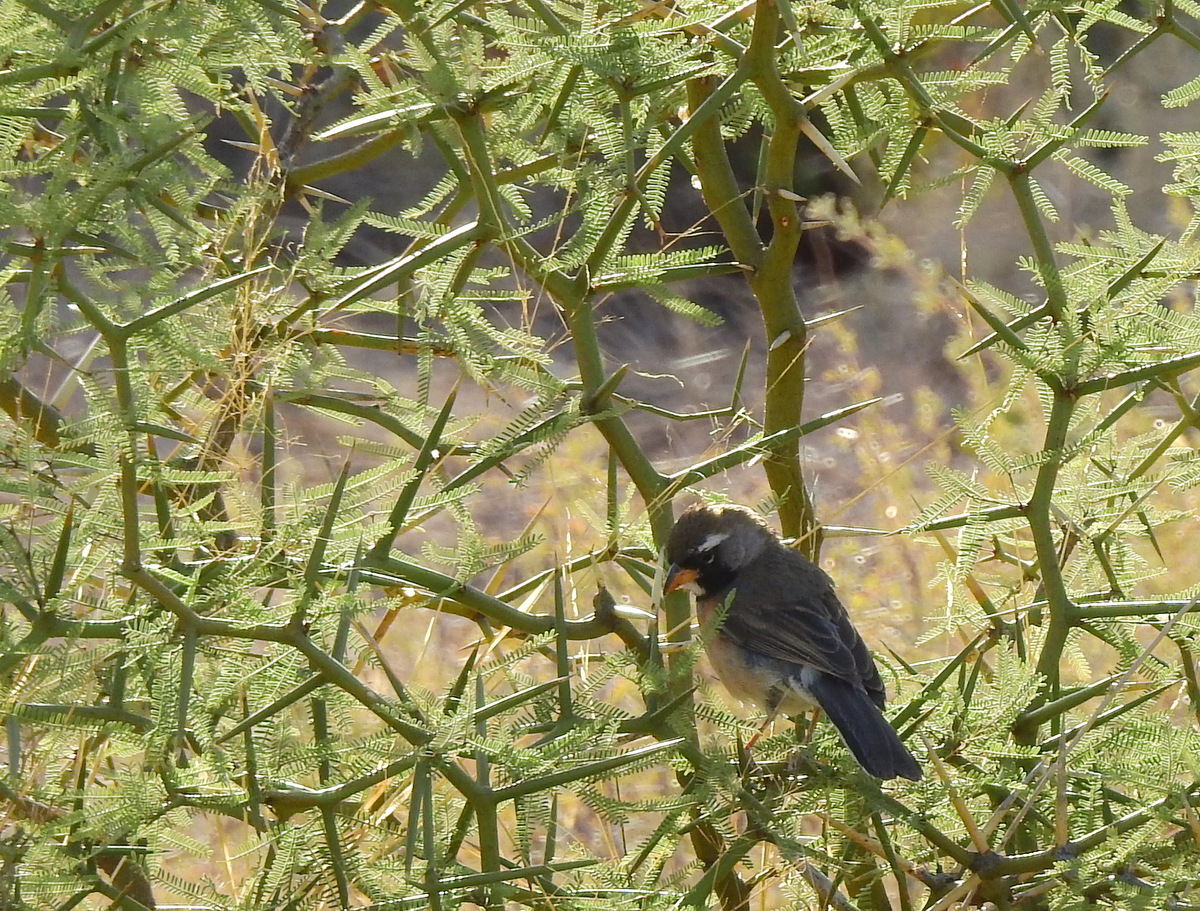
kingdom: Animalia
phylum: Chordata
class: Aves
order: Passeriformes
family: Thraupidae
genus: Saltatricula
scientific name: Saltatricula multicolor
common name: Many-colored chaco finch
